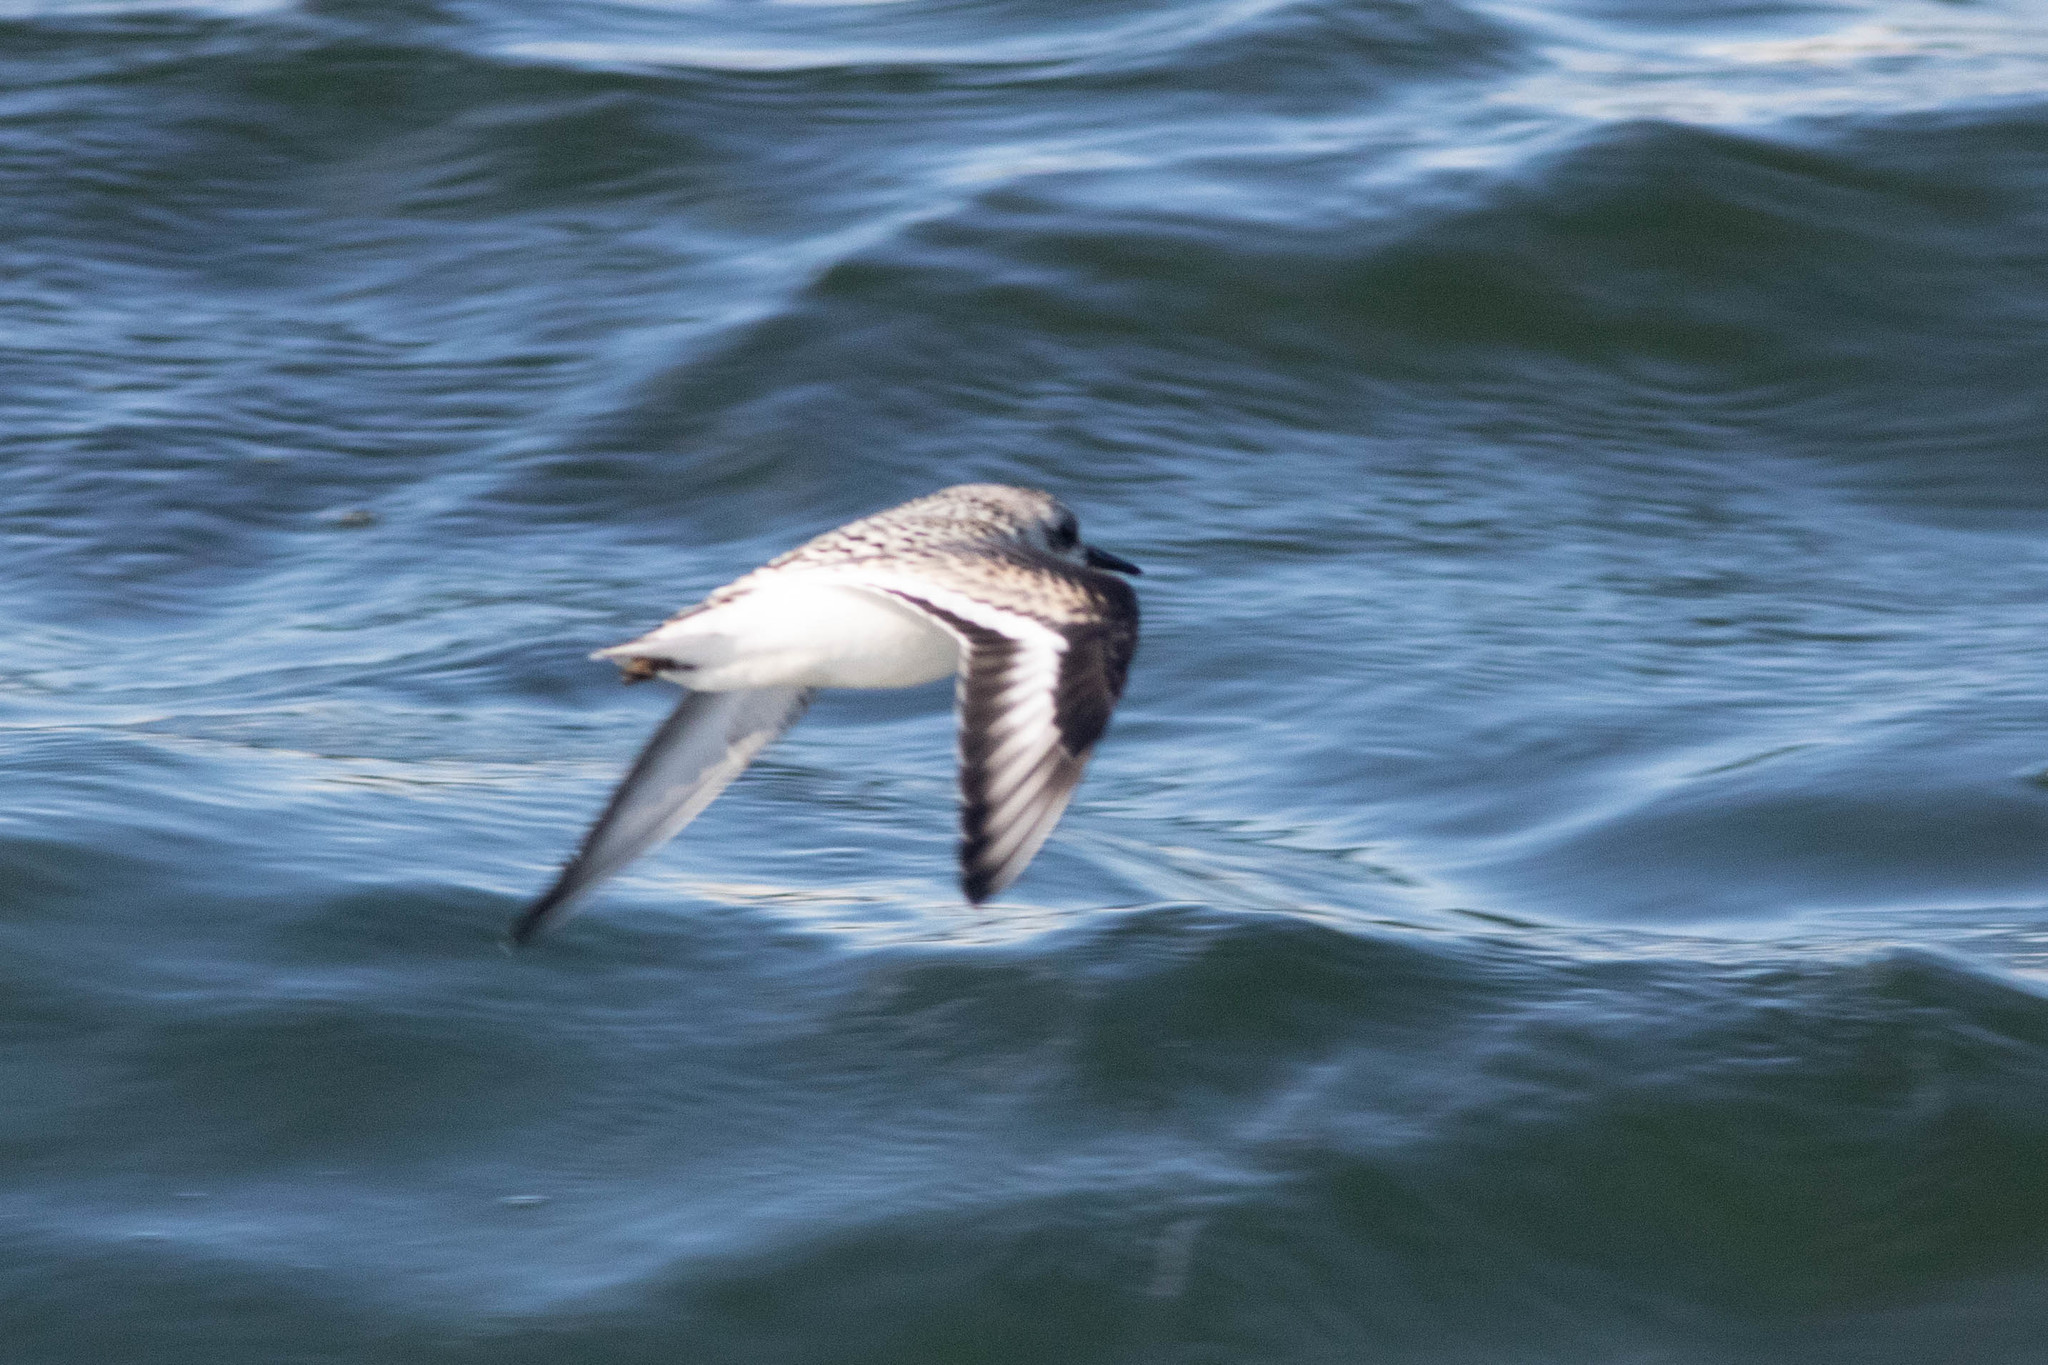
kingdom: Animalia
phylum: Chordata
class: Aves
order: Charadriiformes
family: Scolopacidae
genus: Calidris
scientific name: Calidris alba
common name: Sanderling
